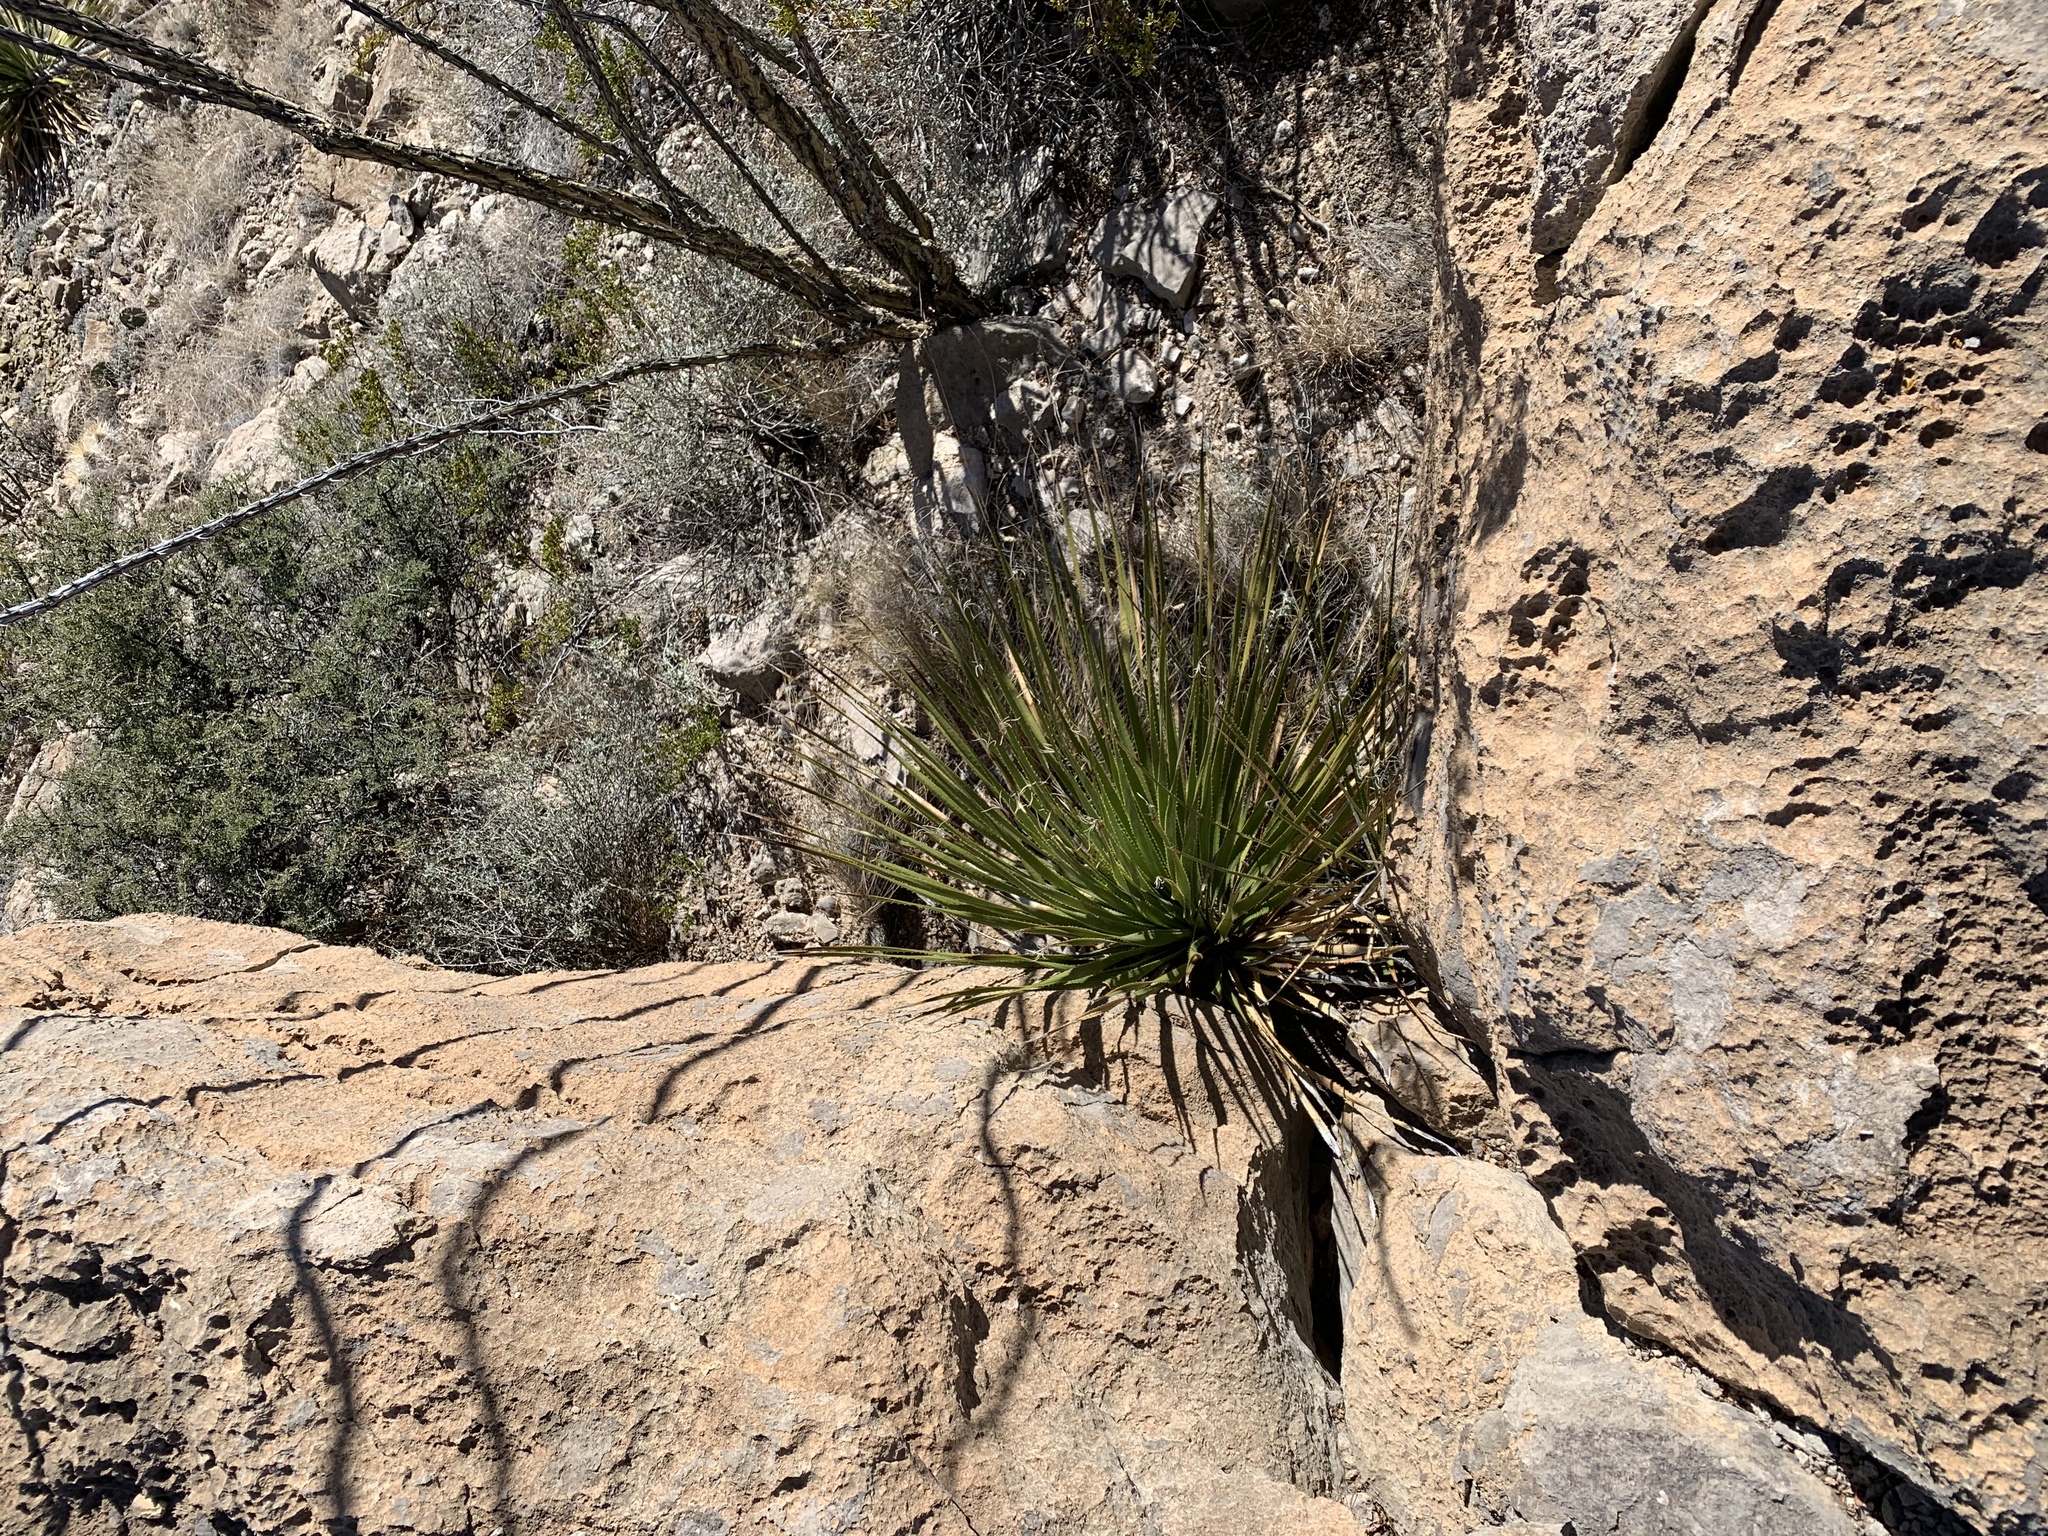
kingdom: Plantae
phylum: Tracheophyta
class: Liliopsida
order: Asparagales
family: Asparagaceae
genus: Dasylirion
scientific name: Dasylirion wheeleri
